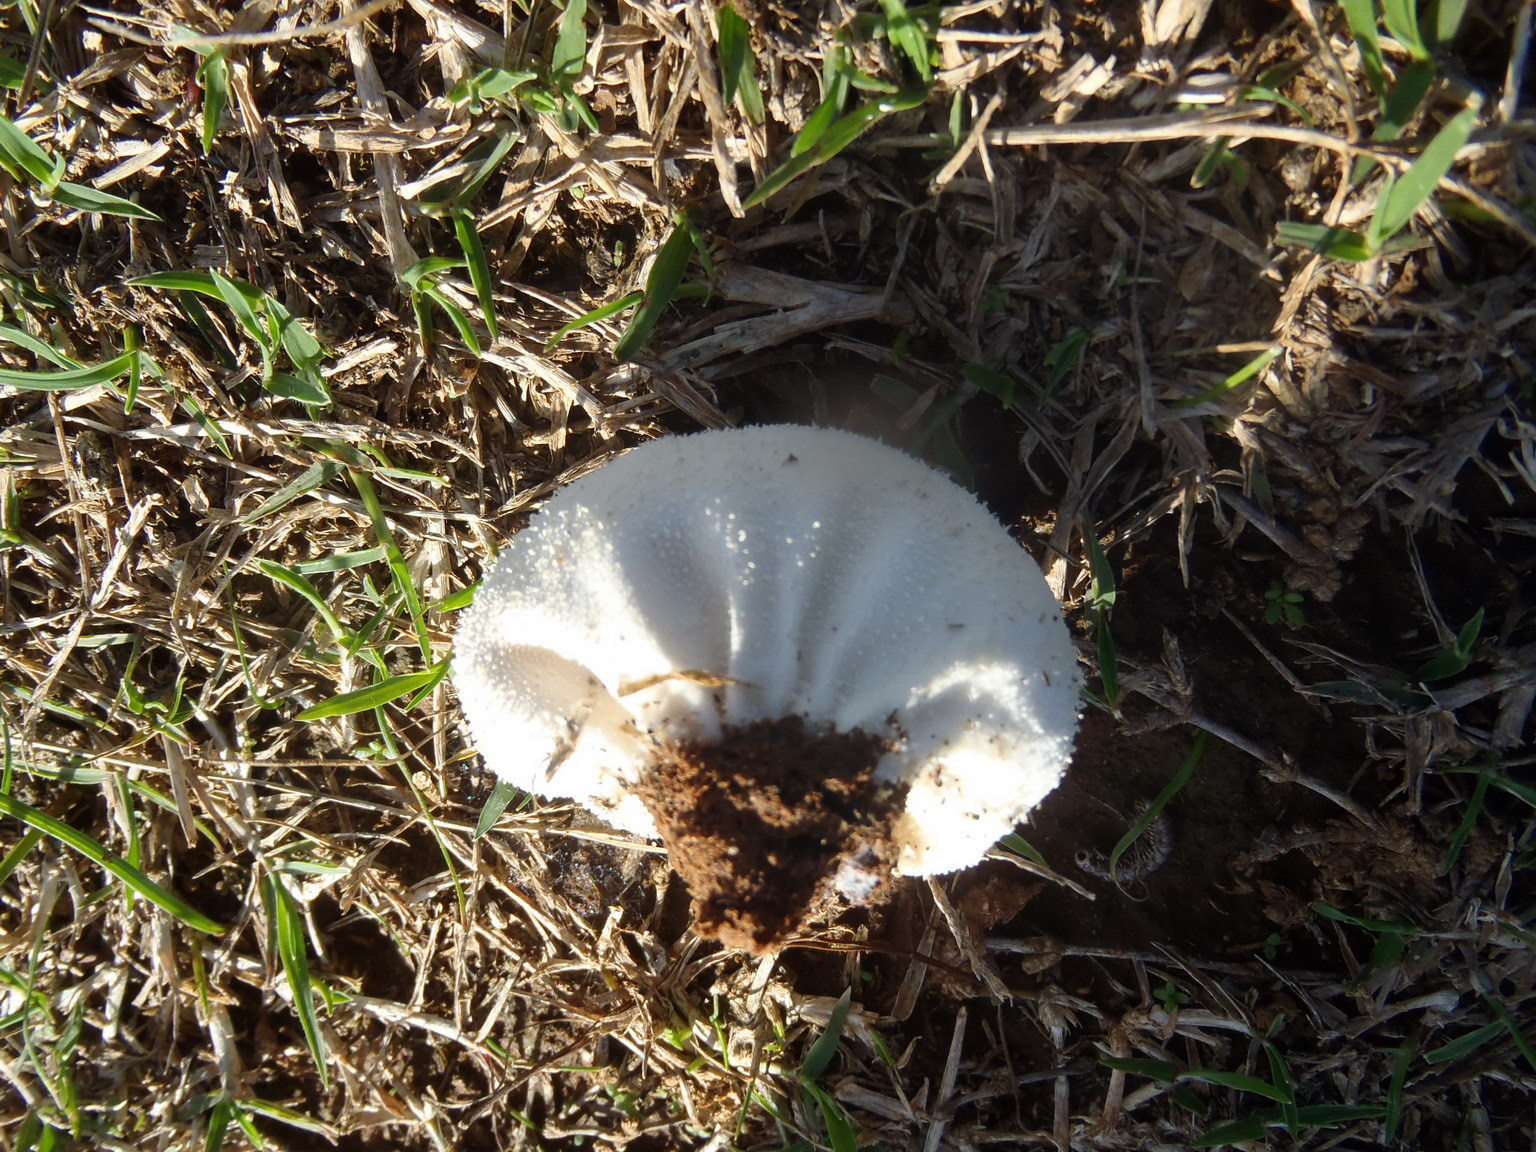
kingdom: Fungi
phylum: Basidiomycota
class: Agaricomycetes
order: Agaricales
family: Lycoperdaceae
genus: Lycoperdon
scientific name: Lycoperdon pratense
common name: Meadow puffball
